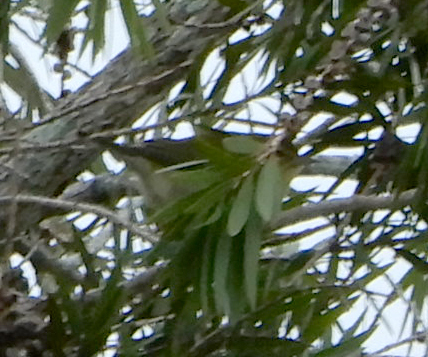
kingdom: Animalia
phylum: Chordata
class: Aves
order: Passeriformes
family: Parulidae
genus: Leiothlypis
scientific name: Leiothlypis peregrina
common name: Tennessee warbler
